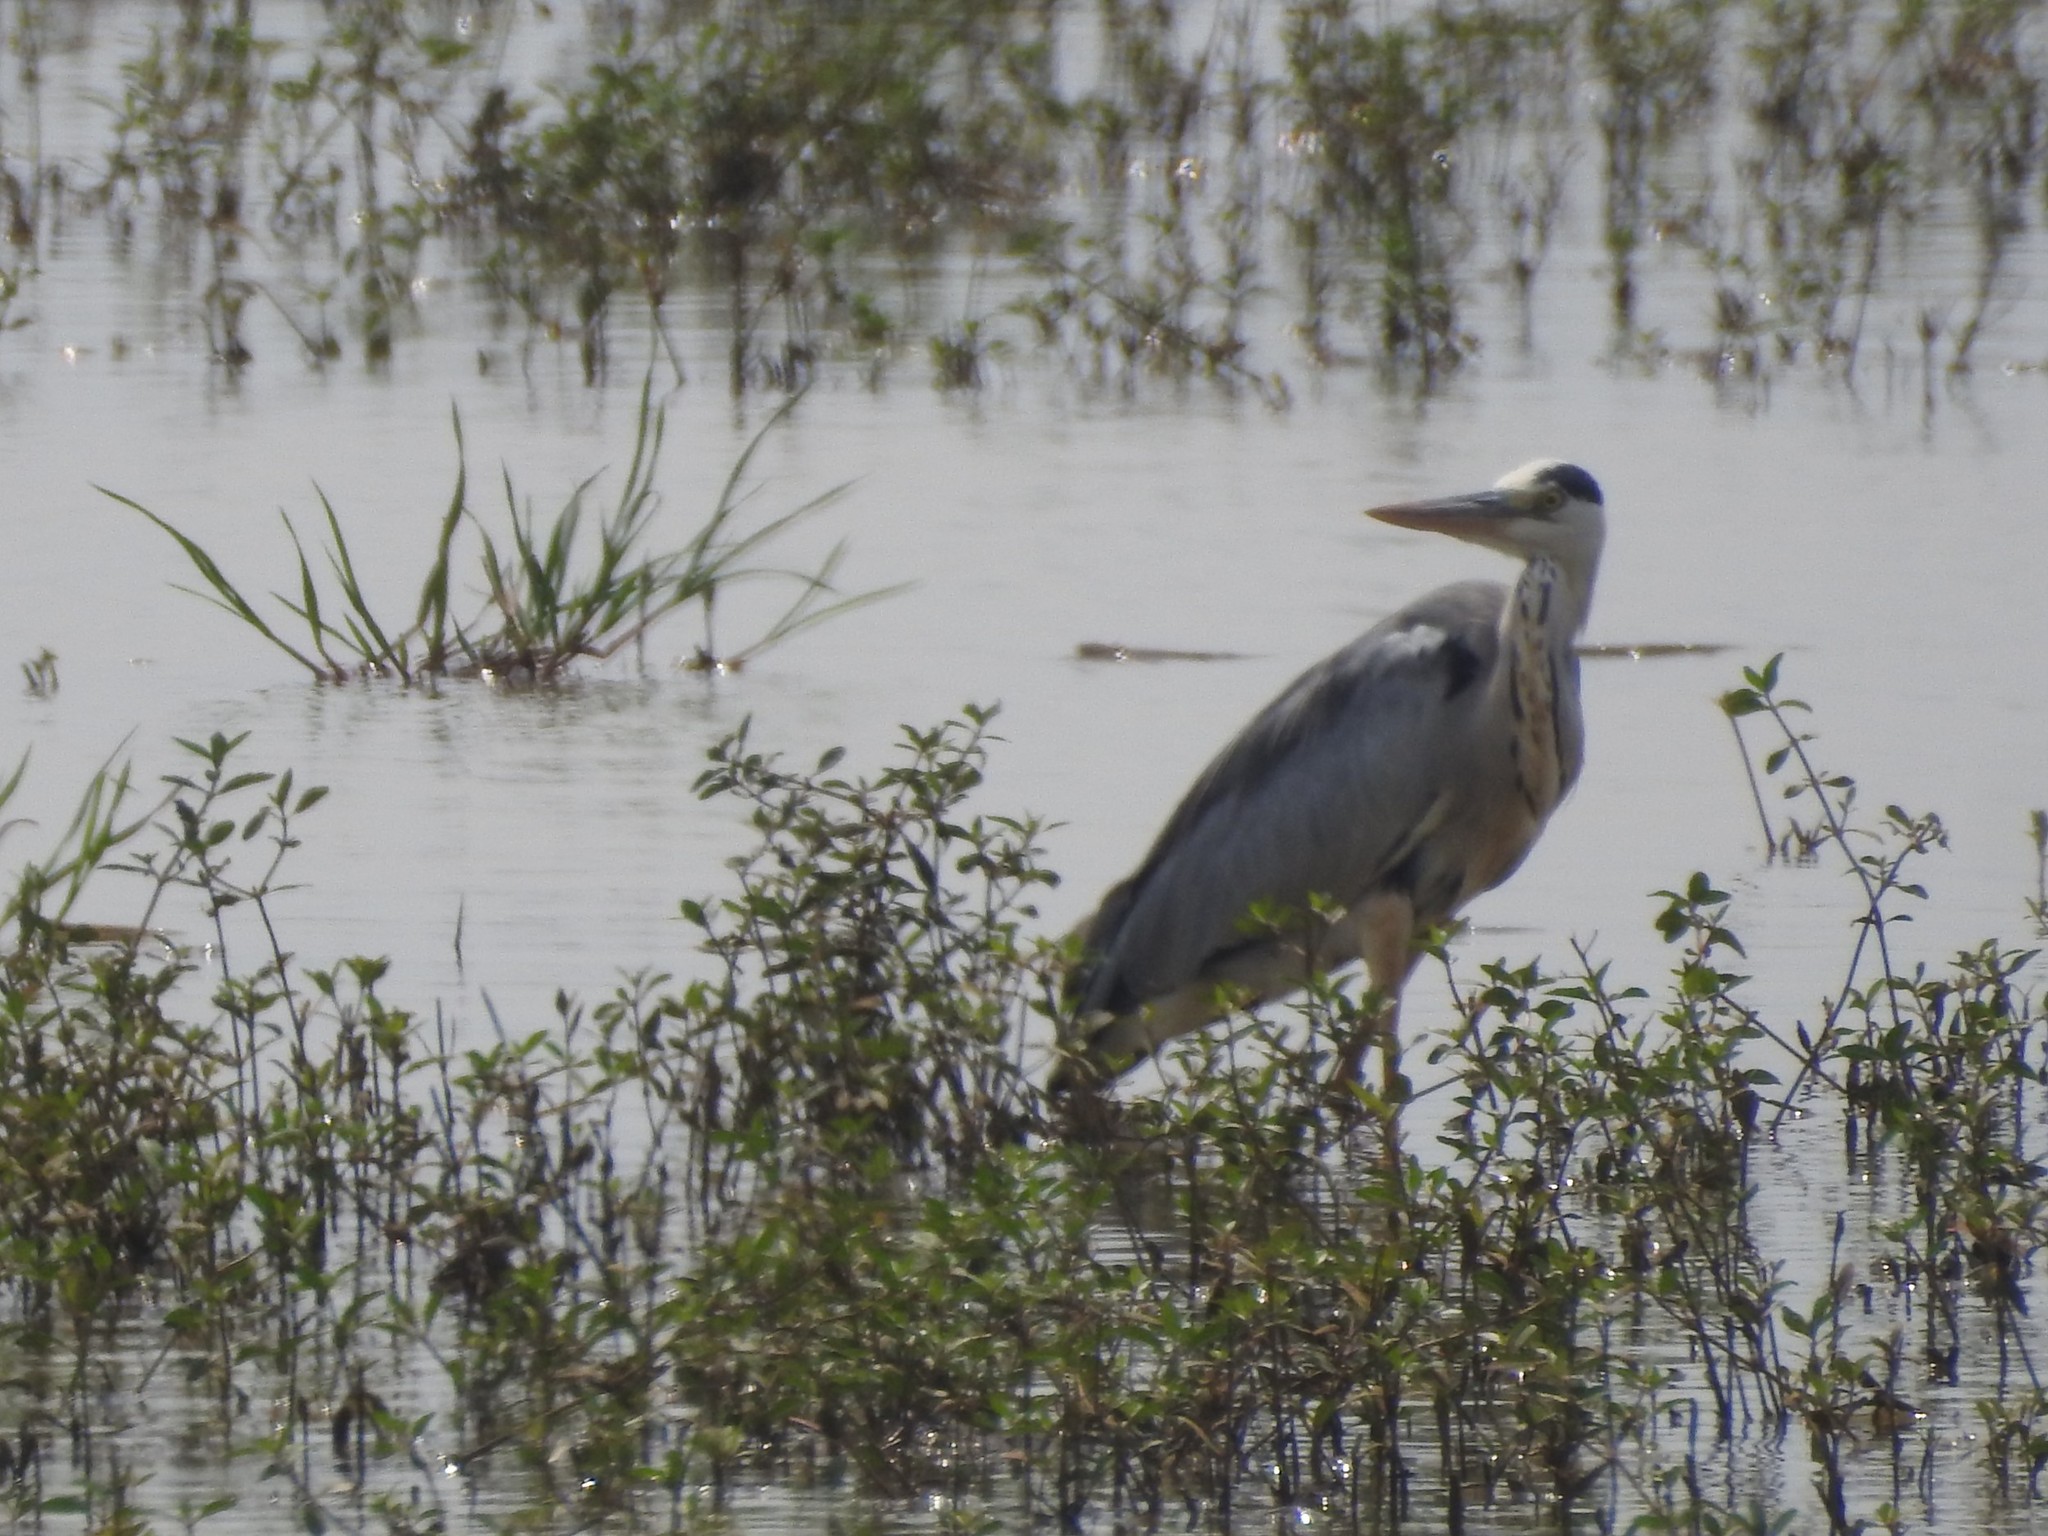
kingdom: Animalia
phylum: Chordata
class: Aves
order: Pelecaniformes
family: Ardeidae
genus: Ardea
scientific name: Ardea cinerea
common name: Grey heron
